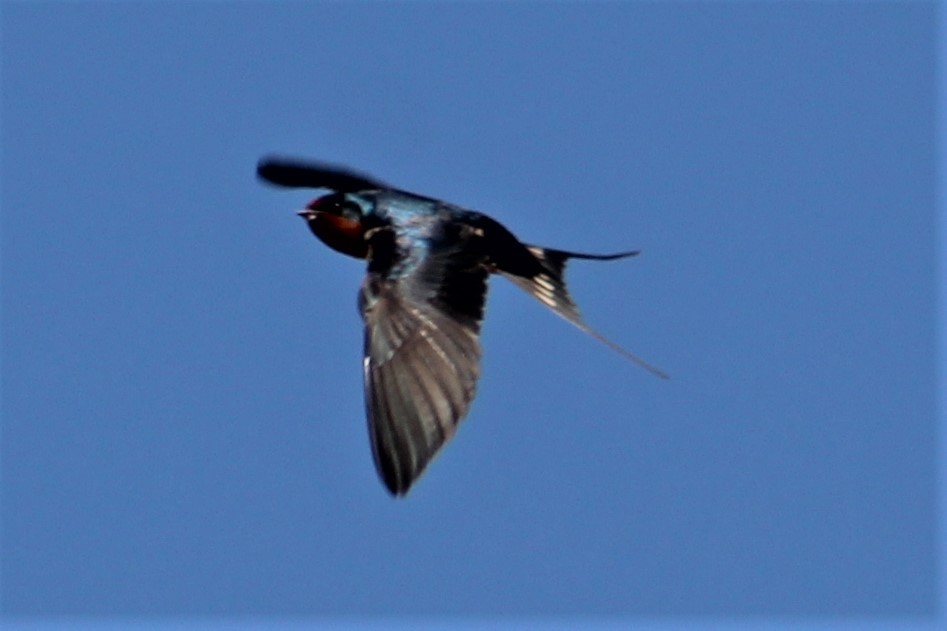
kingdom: Animalia
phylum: Chordata
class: Aves
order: Passeriformes
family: Hirundinidae
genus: Hirundo
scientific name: Hirundo rustica
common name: Barn swallow
